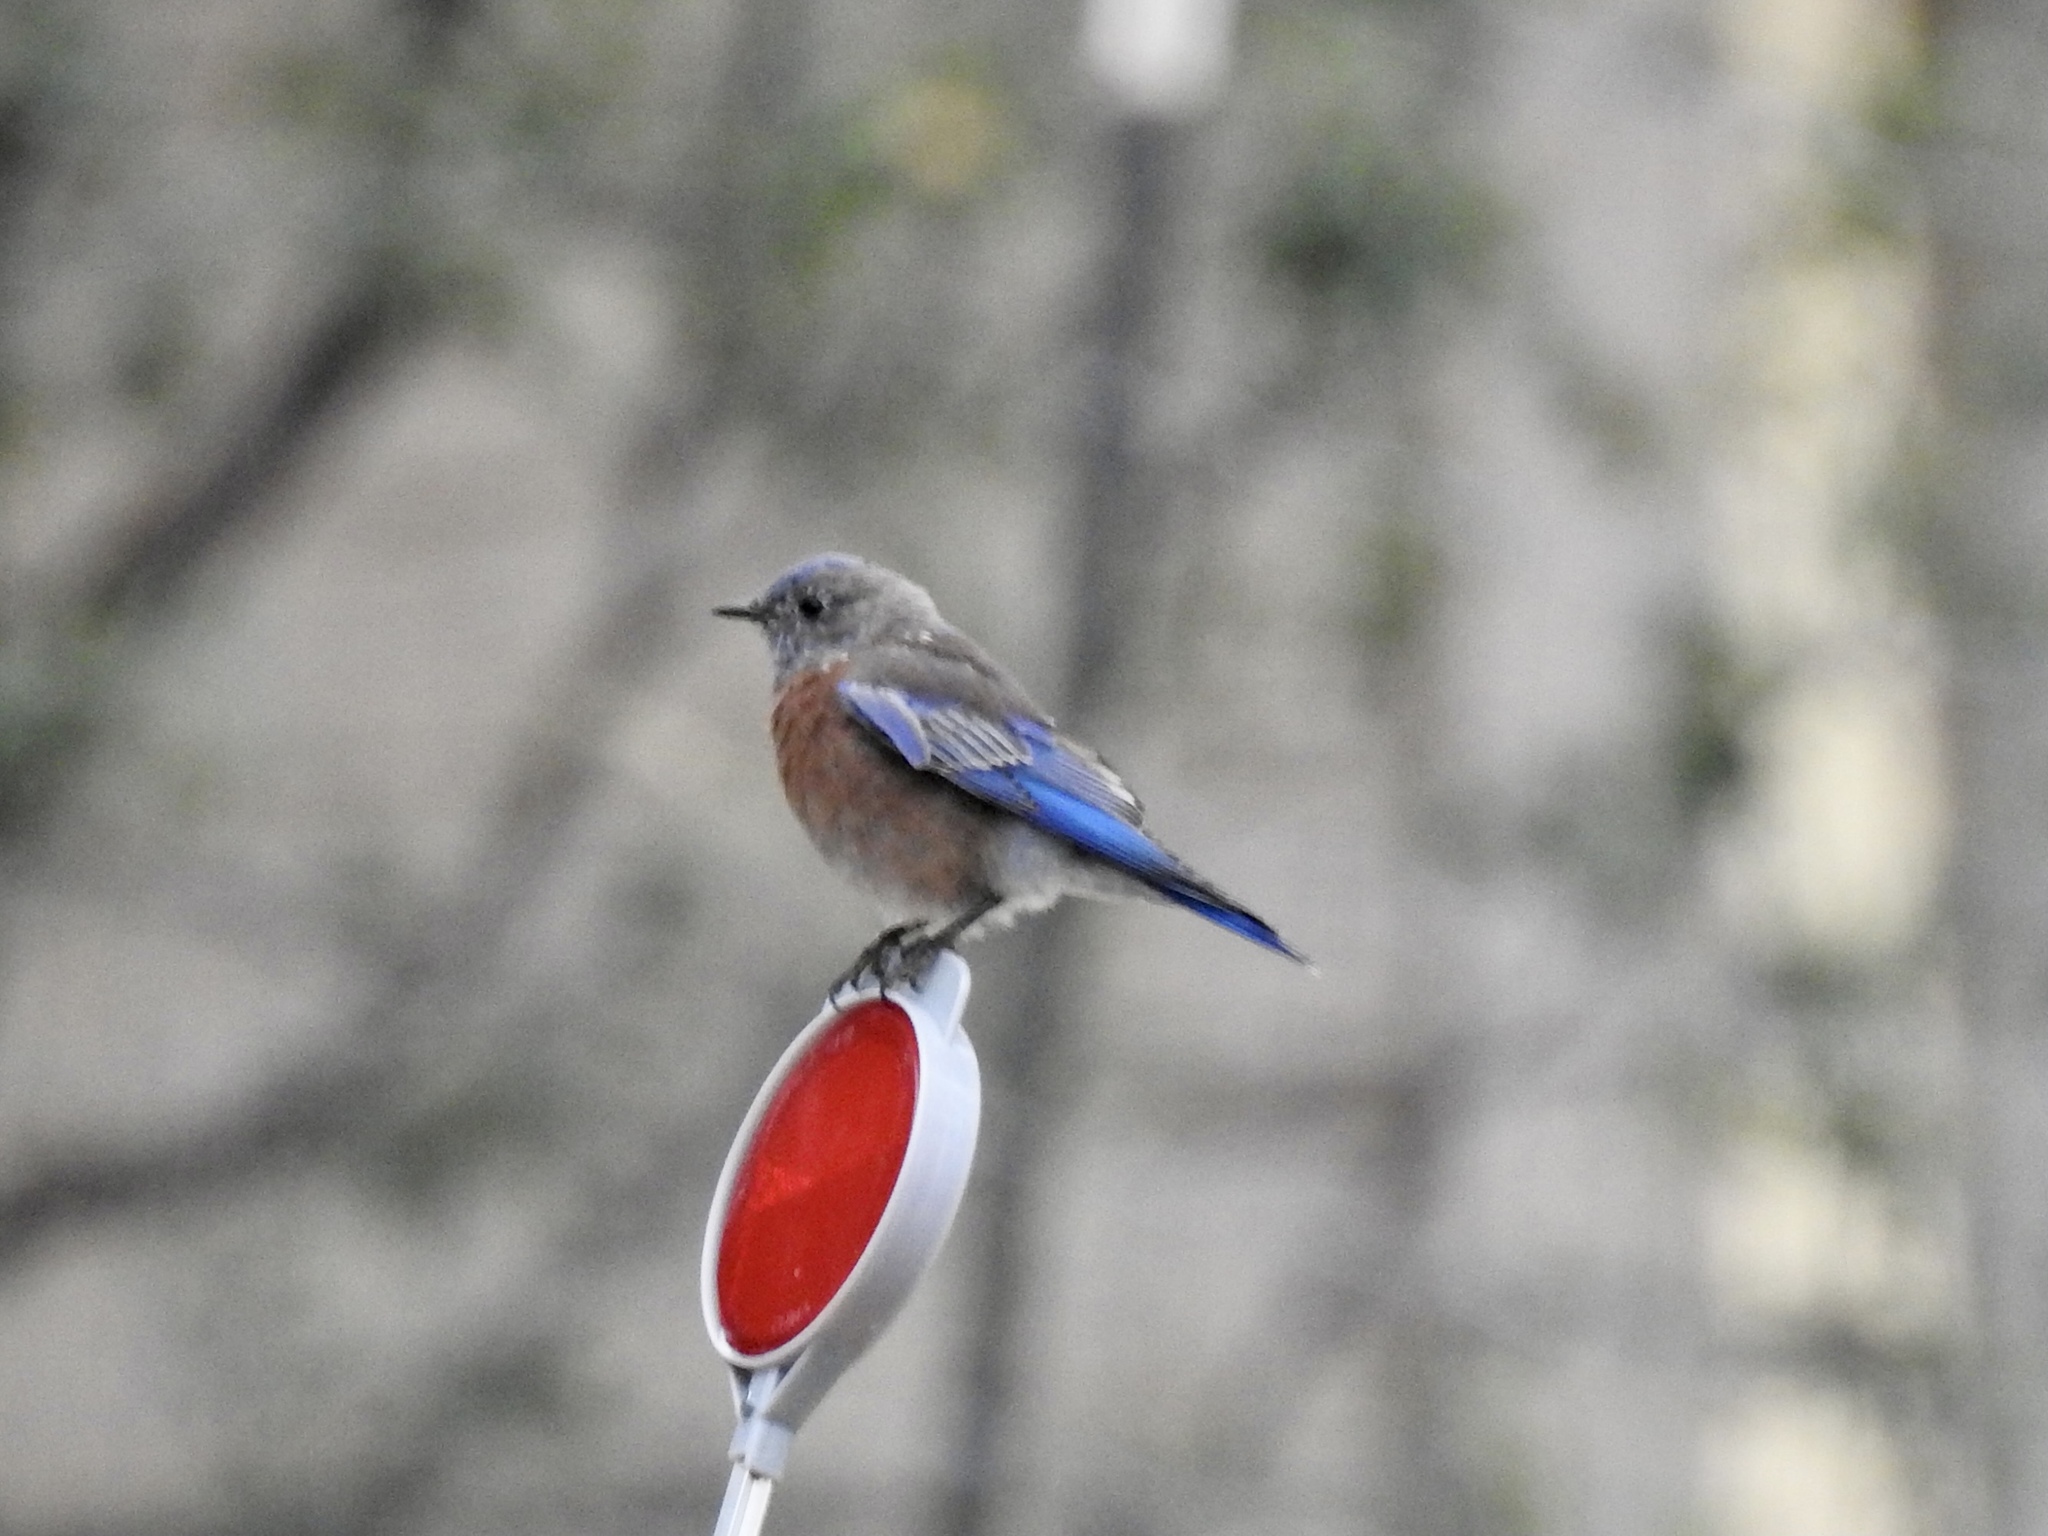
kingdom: Animalia
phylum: Chordata
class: Aves
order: Passeriformes
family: Turdidae
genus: Sialia
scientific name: Sialia mexicana
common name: Western bluebird
